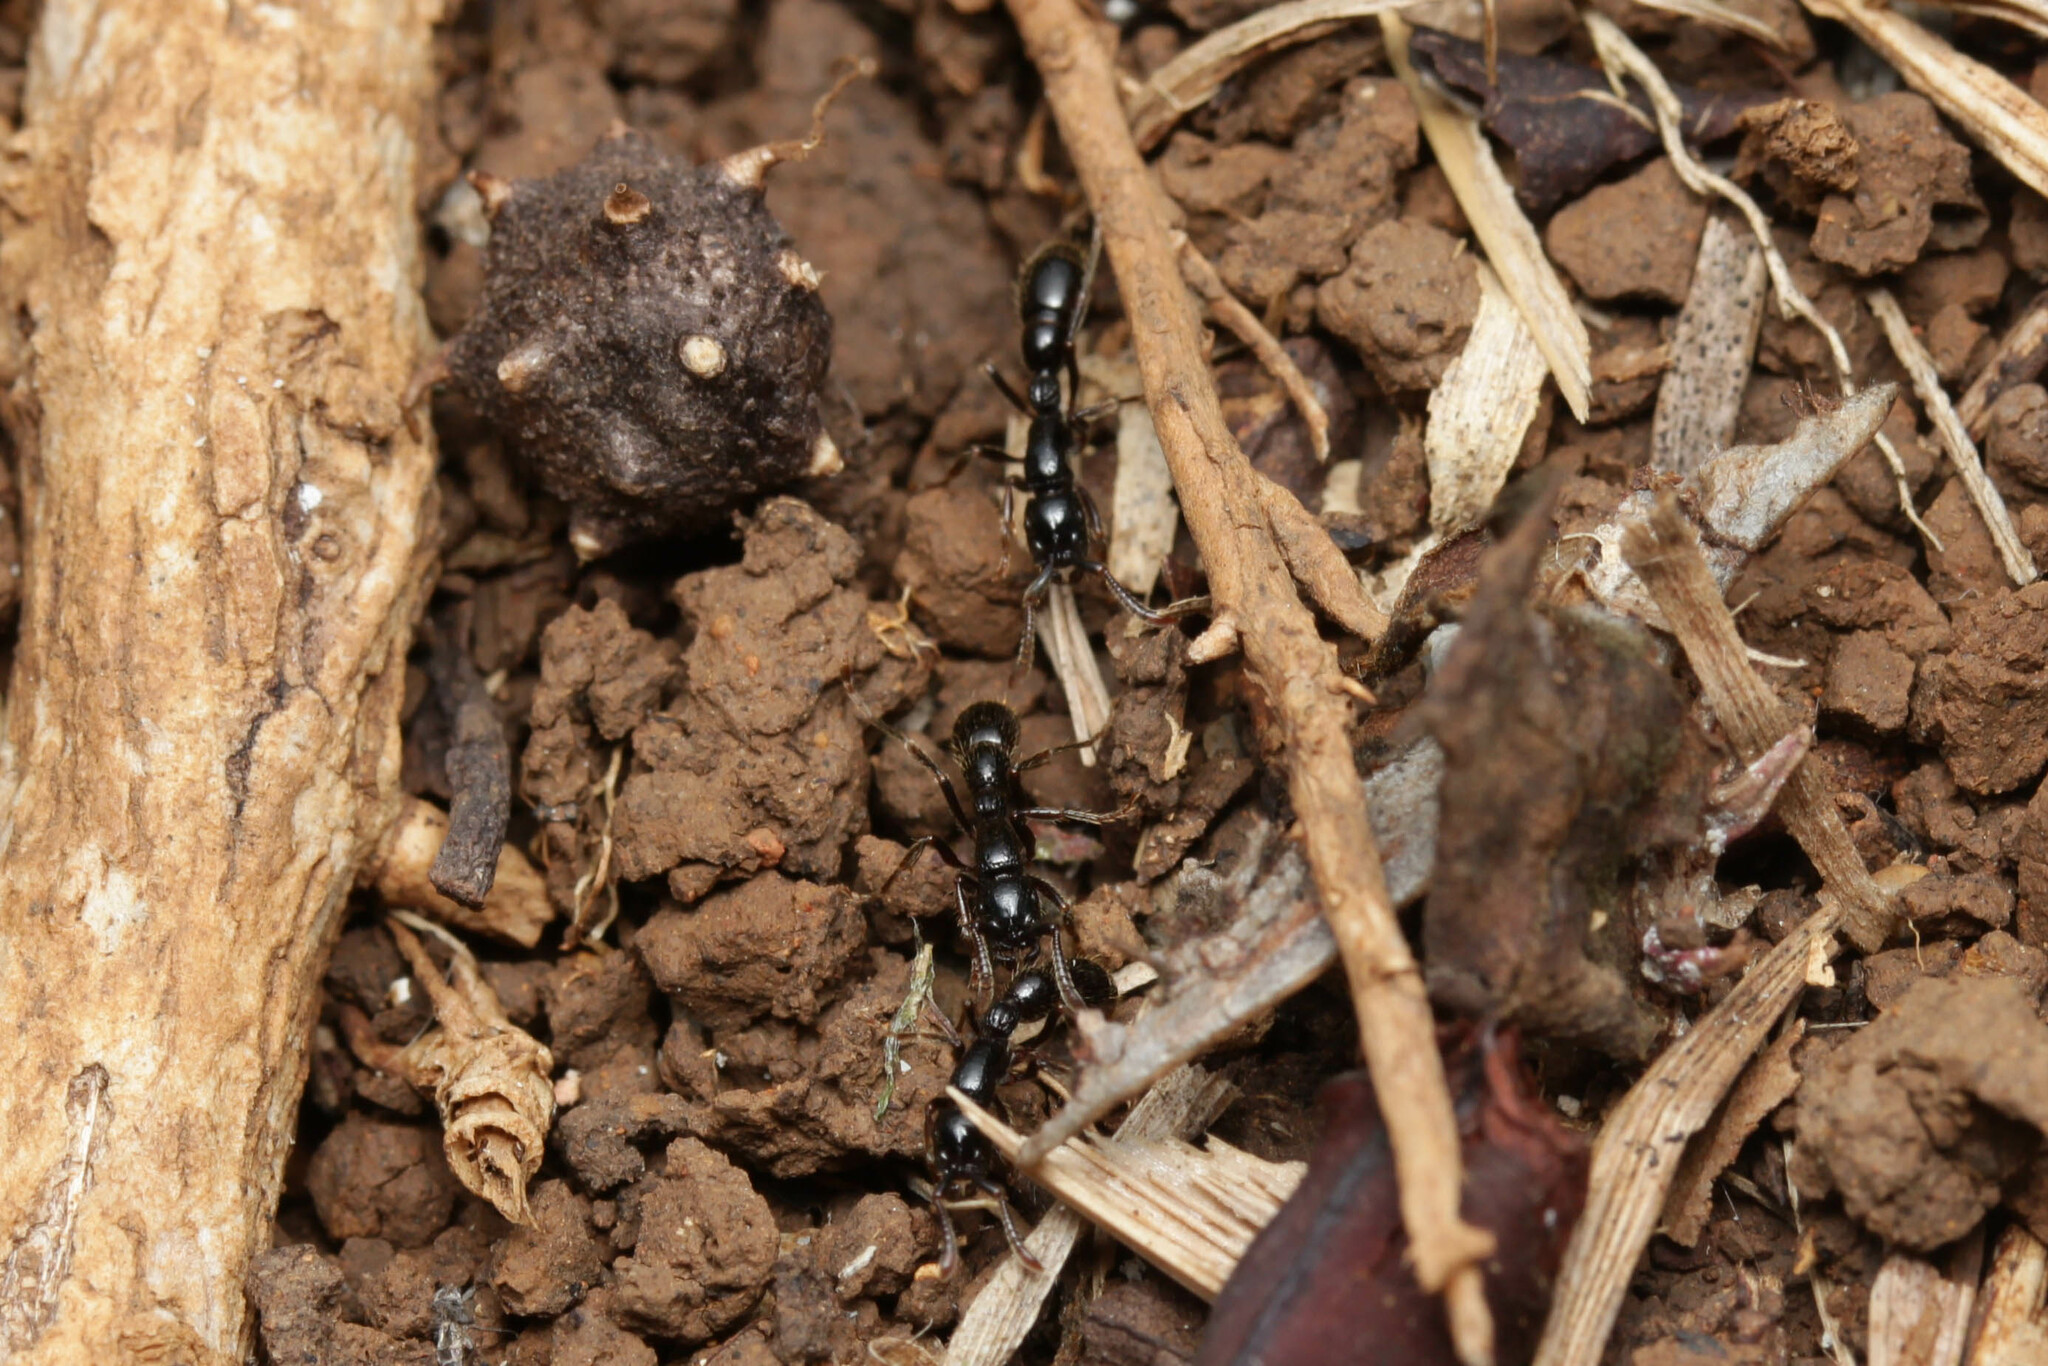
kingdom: Animalia
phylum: Arthropoda
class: Insecta
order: Hymenoptera
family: Formicidae
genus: Cerapachys
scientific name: Cerapachys sulcinodis
